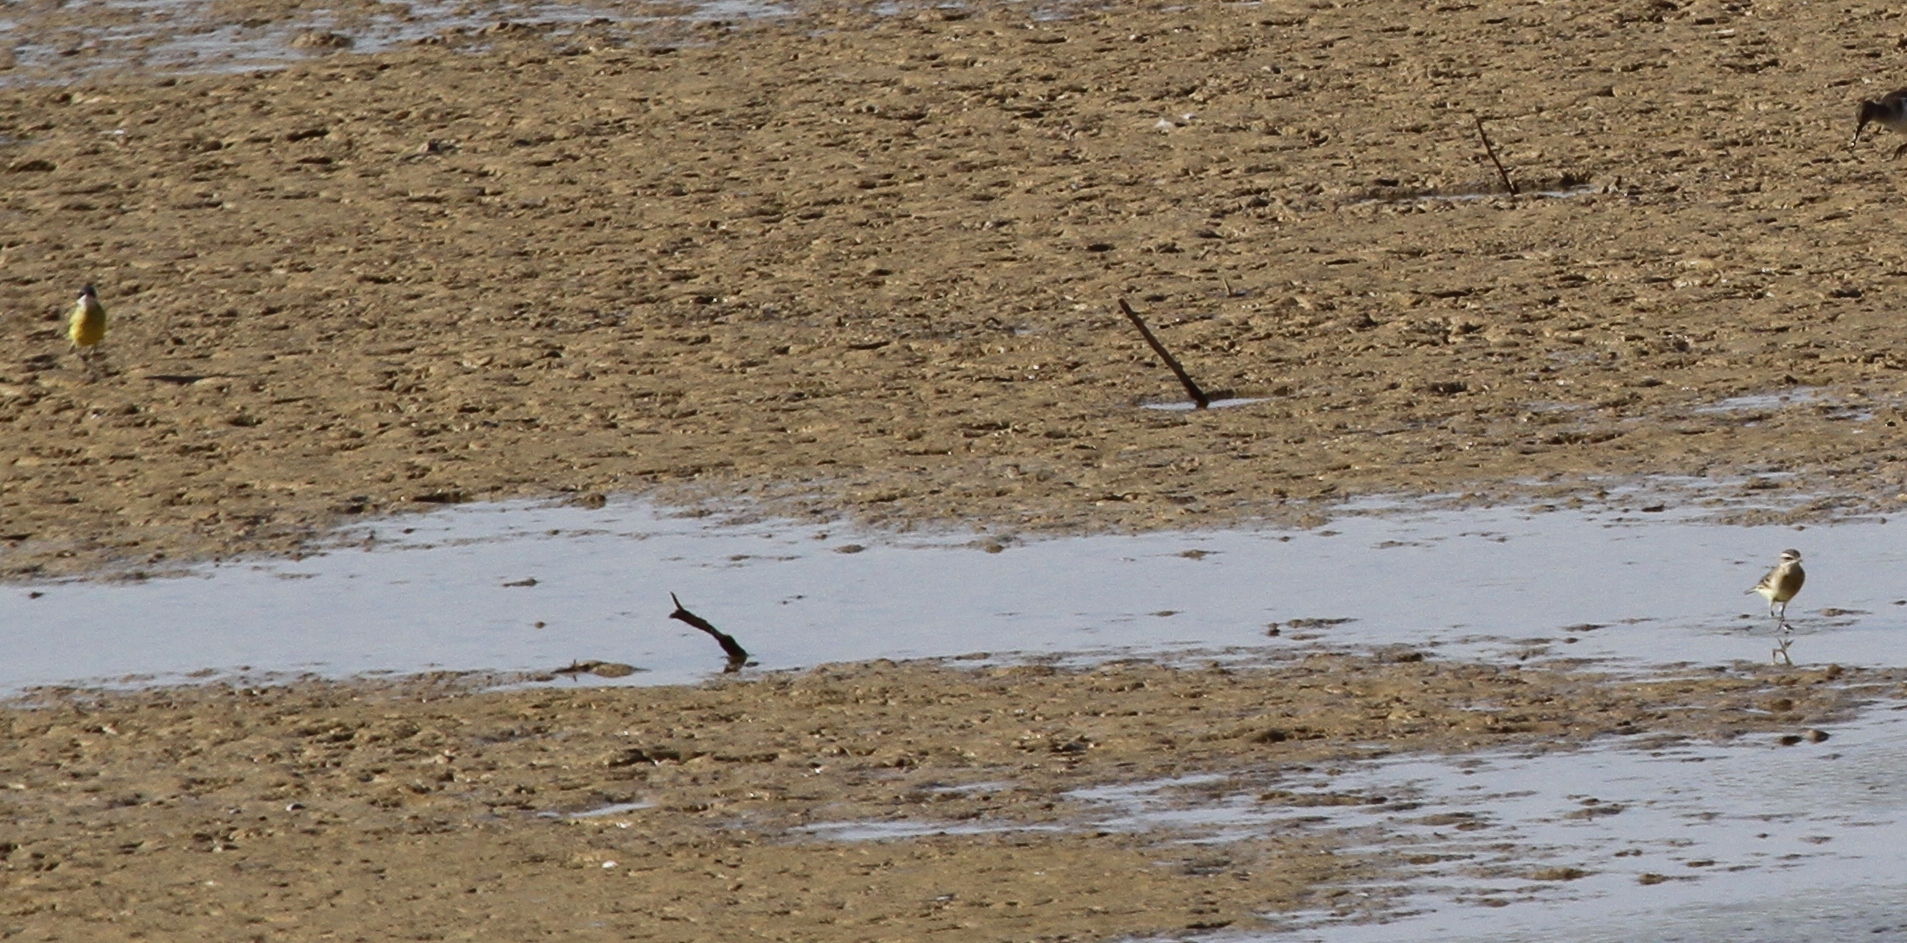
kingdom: Animalia
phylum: Chordata
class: Aves
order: Passeriformes
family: Motacillidae
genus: Motacilla
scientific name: Motacilla flava
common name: Western yellow wagtail
